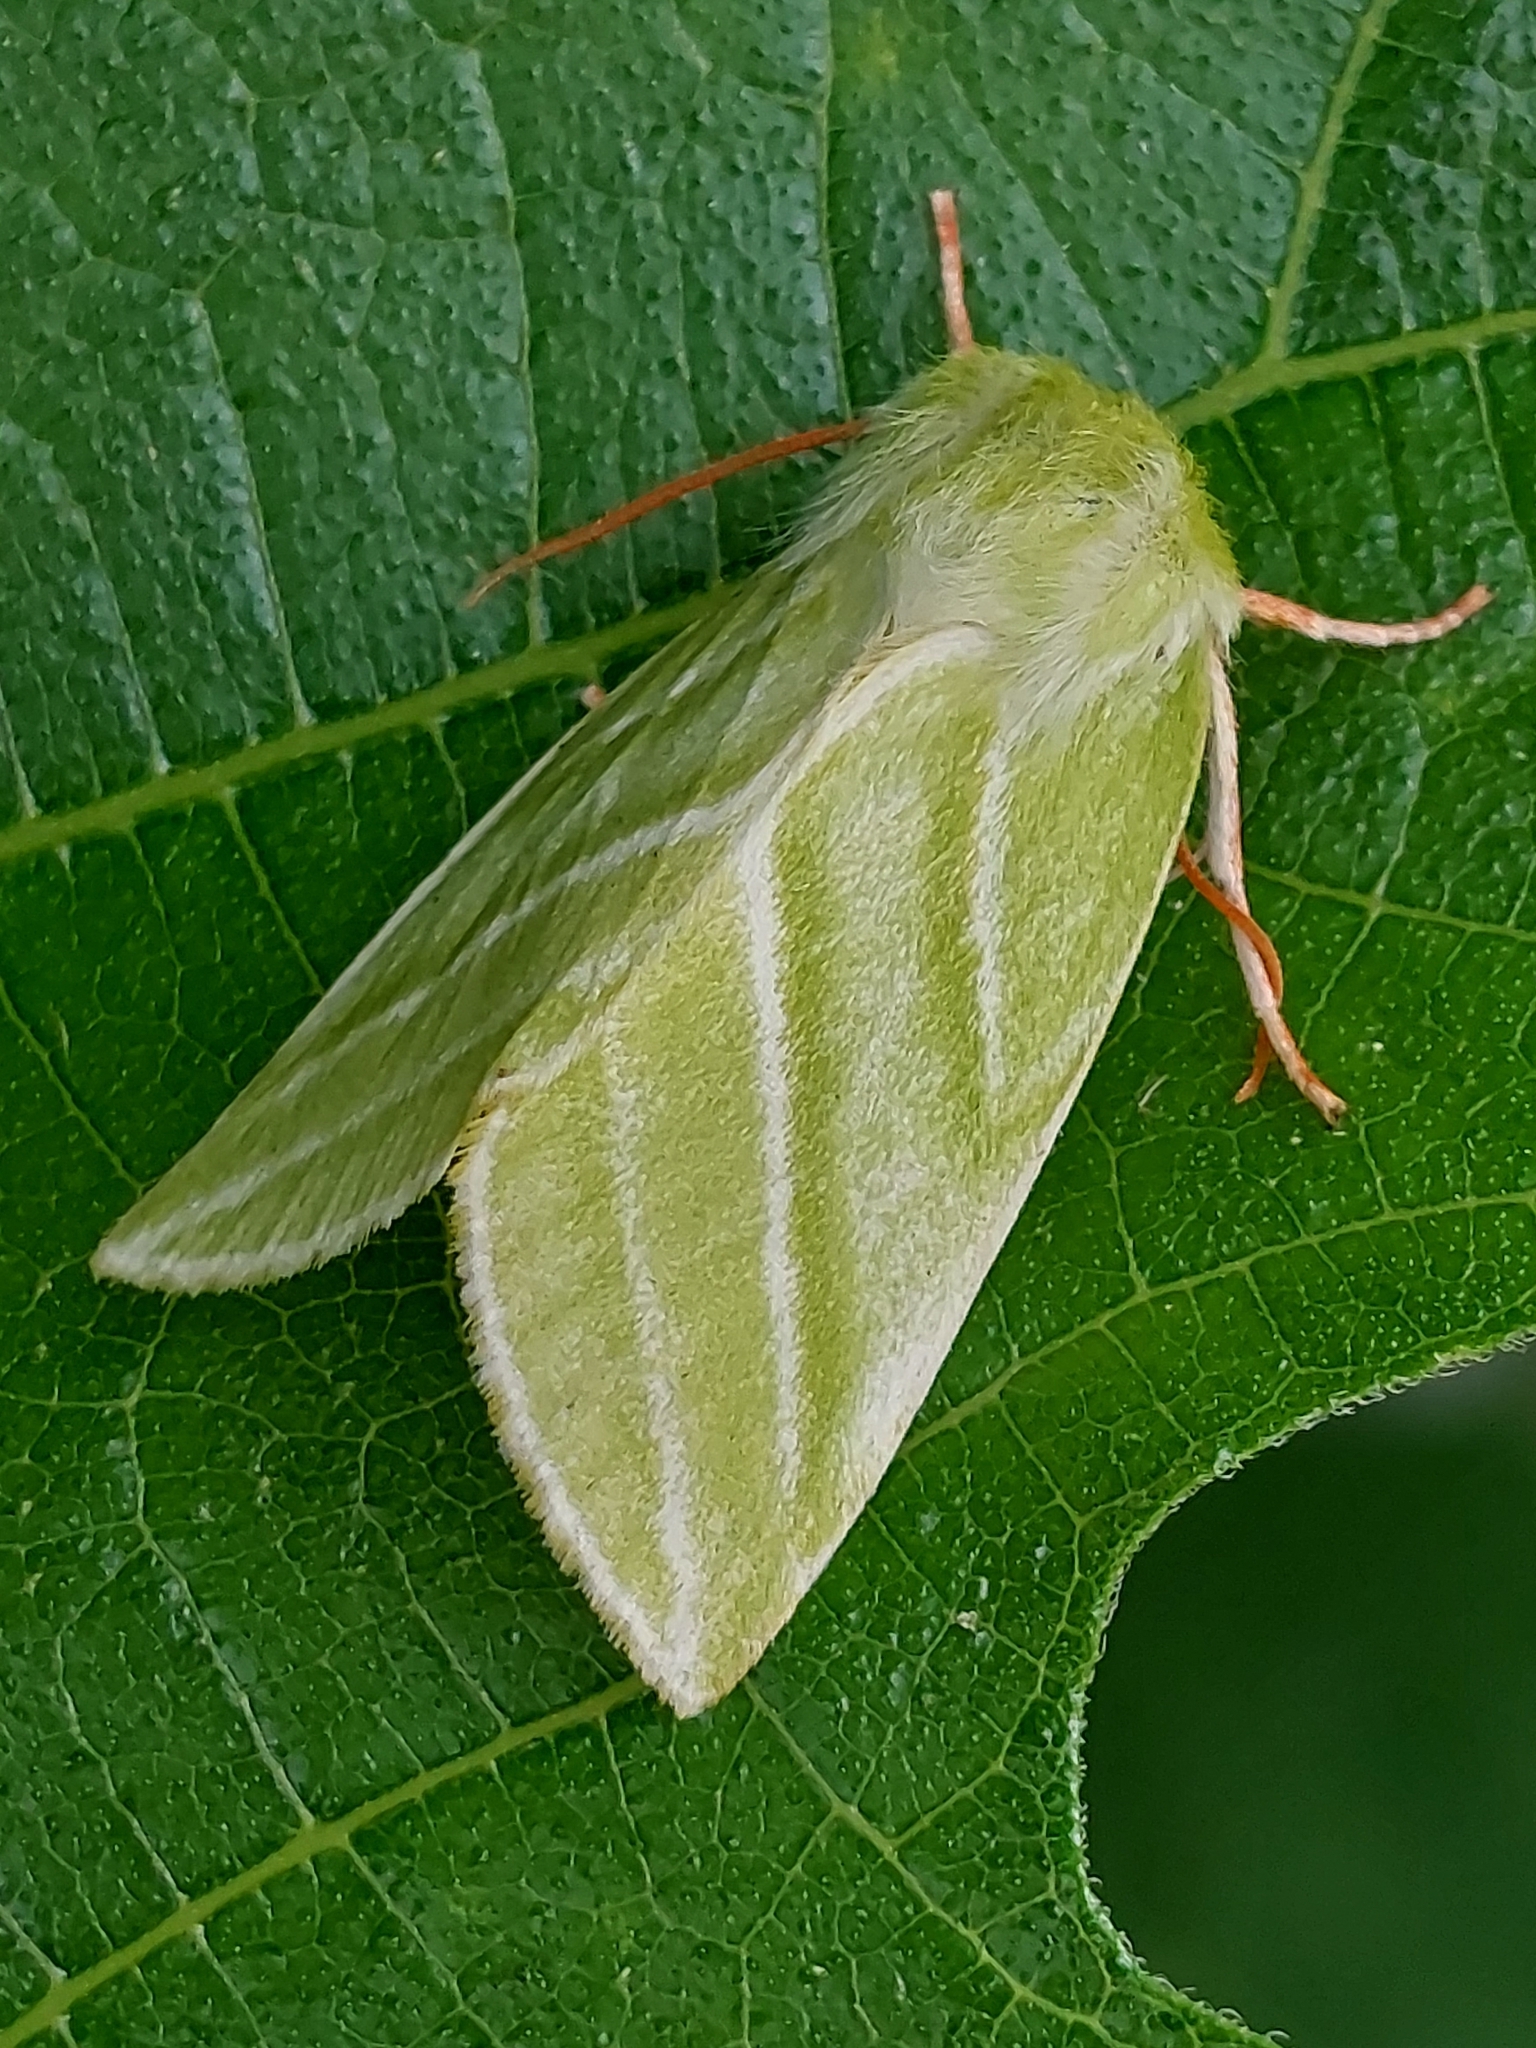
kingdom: Animalia
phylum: Arthropoda
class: Insecta
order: Lepidoptera
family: Nolidae
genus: Pseudoips
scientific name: Pseudoips prasinana
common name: Green silver-lines
